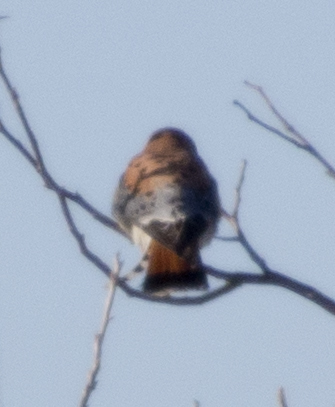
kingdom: Animalia
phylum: Chordata
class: Aves
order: Falconiformes
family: Falconidae
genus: Falco
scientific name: Falco sparverius
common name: American kestrel
